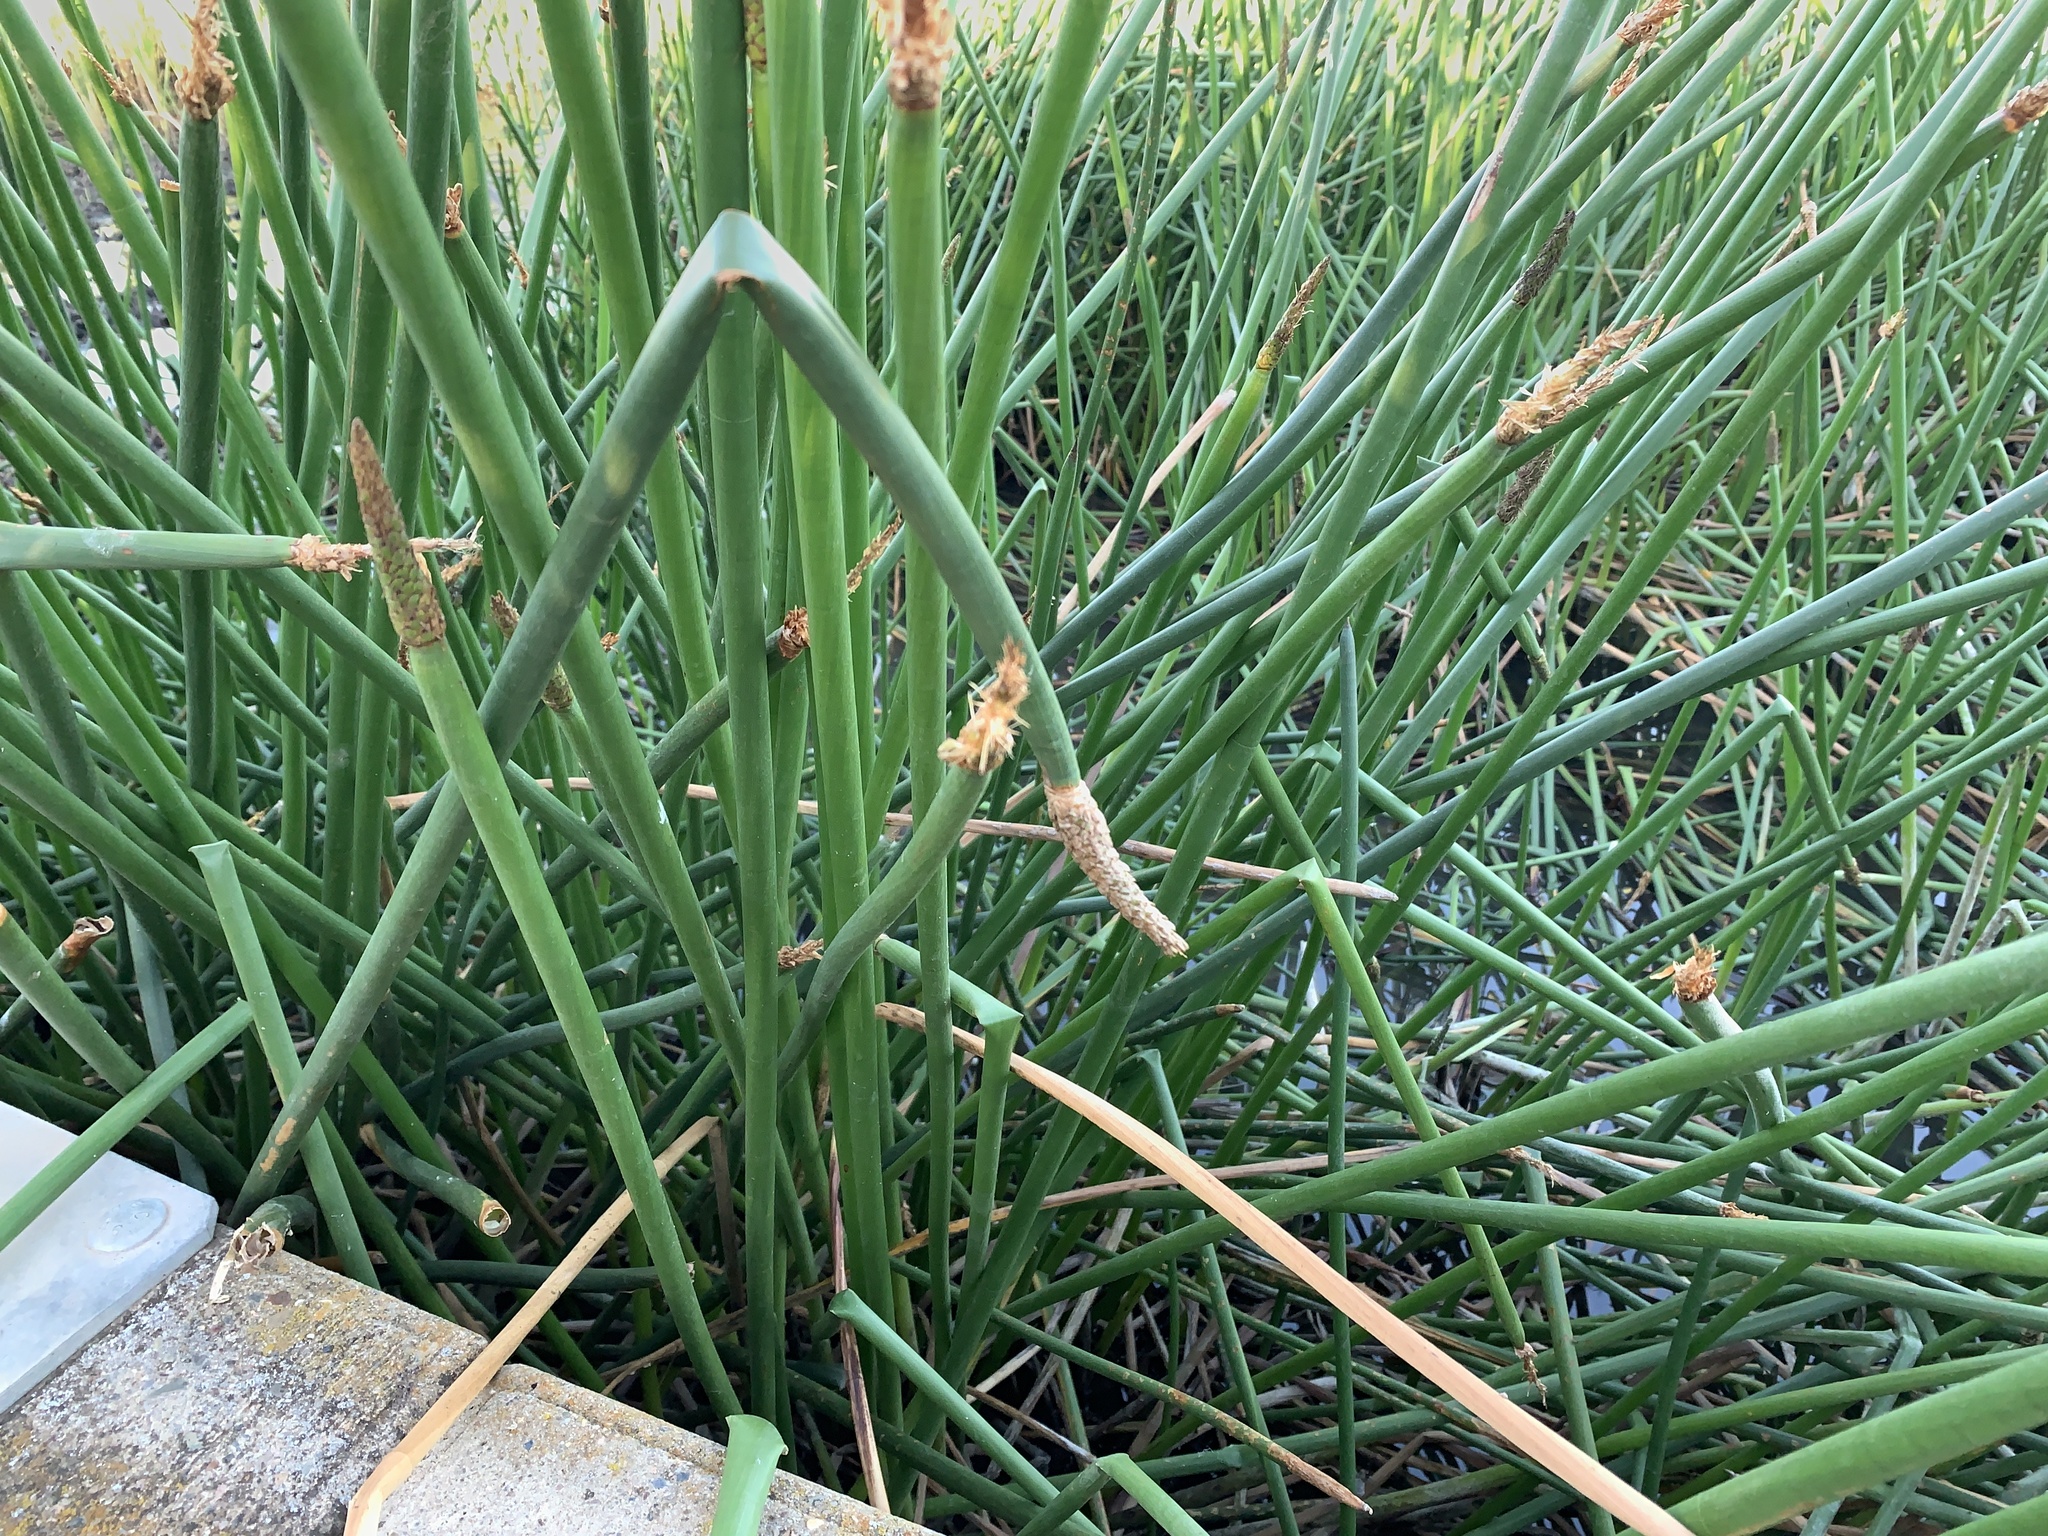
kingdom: Plantae
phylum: Tracheophyta
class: Liliopsida
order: Poales
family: Cyperaceae
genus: Eleocharis
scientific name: Eleocharis sphacelata
